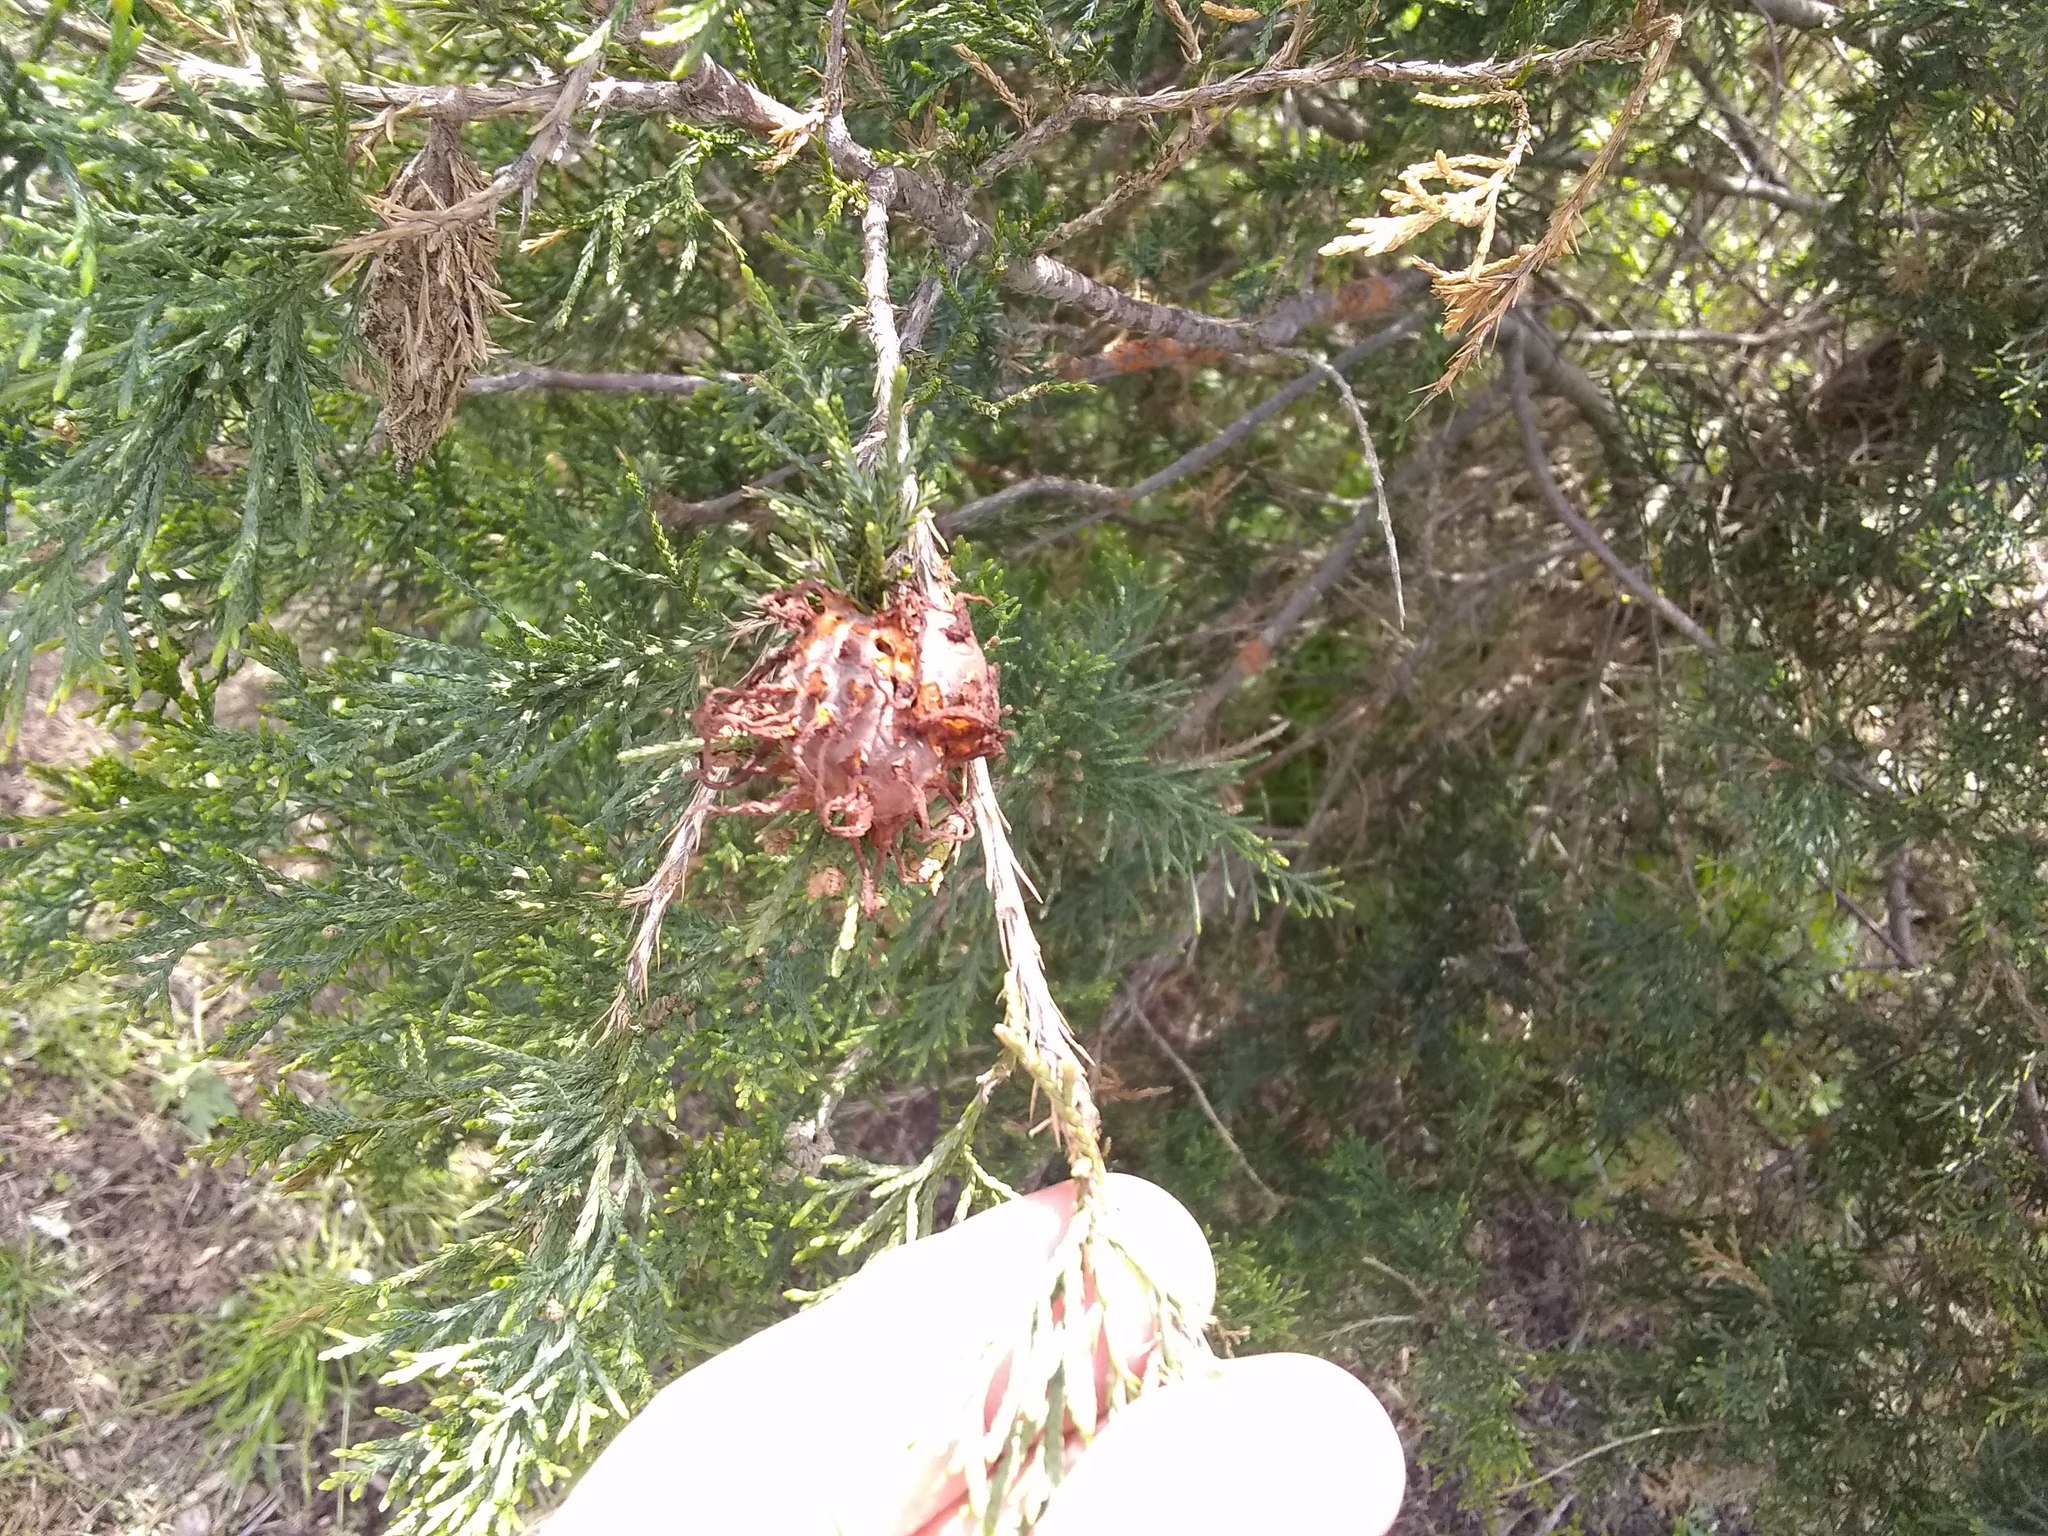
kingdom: Fungi
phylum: Basidiomycota
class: Pucciniomycetes
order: Pucciniales
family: Gymnosporangiaceae
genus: Gymnosporangium
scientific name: Gymnosporangium juniperi-virginianae
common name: Juniper-apple rust
